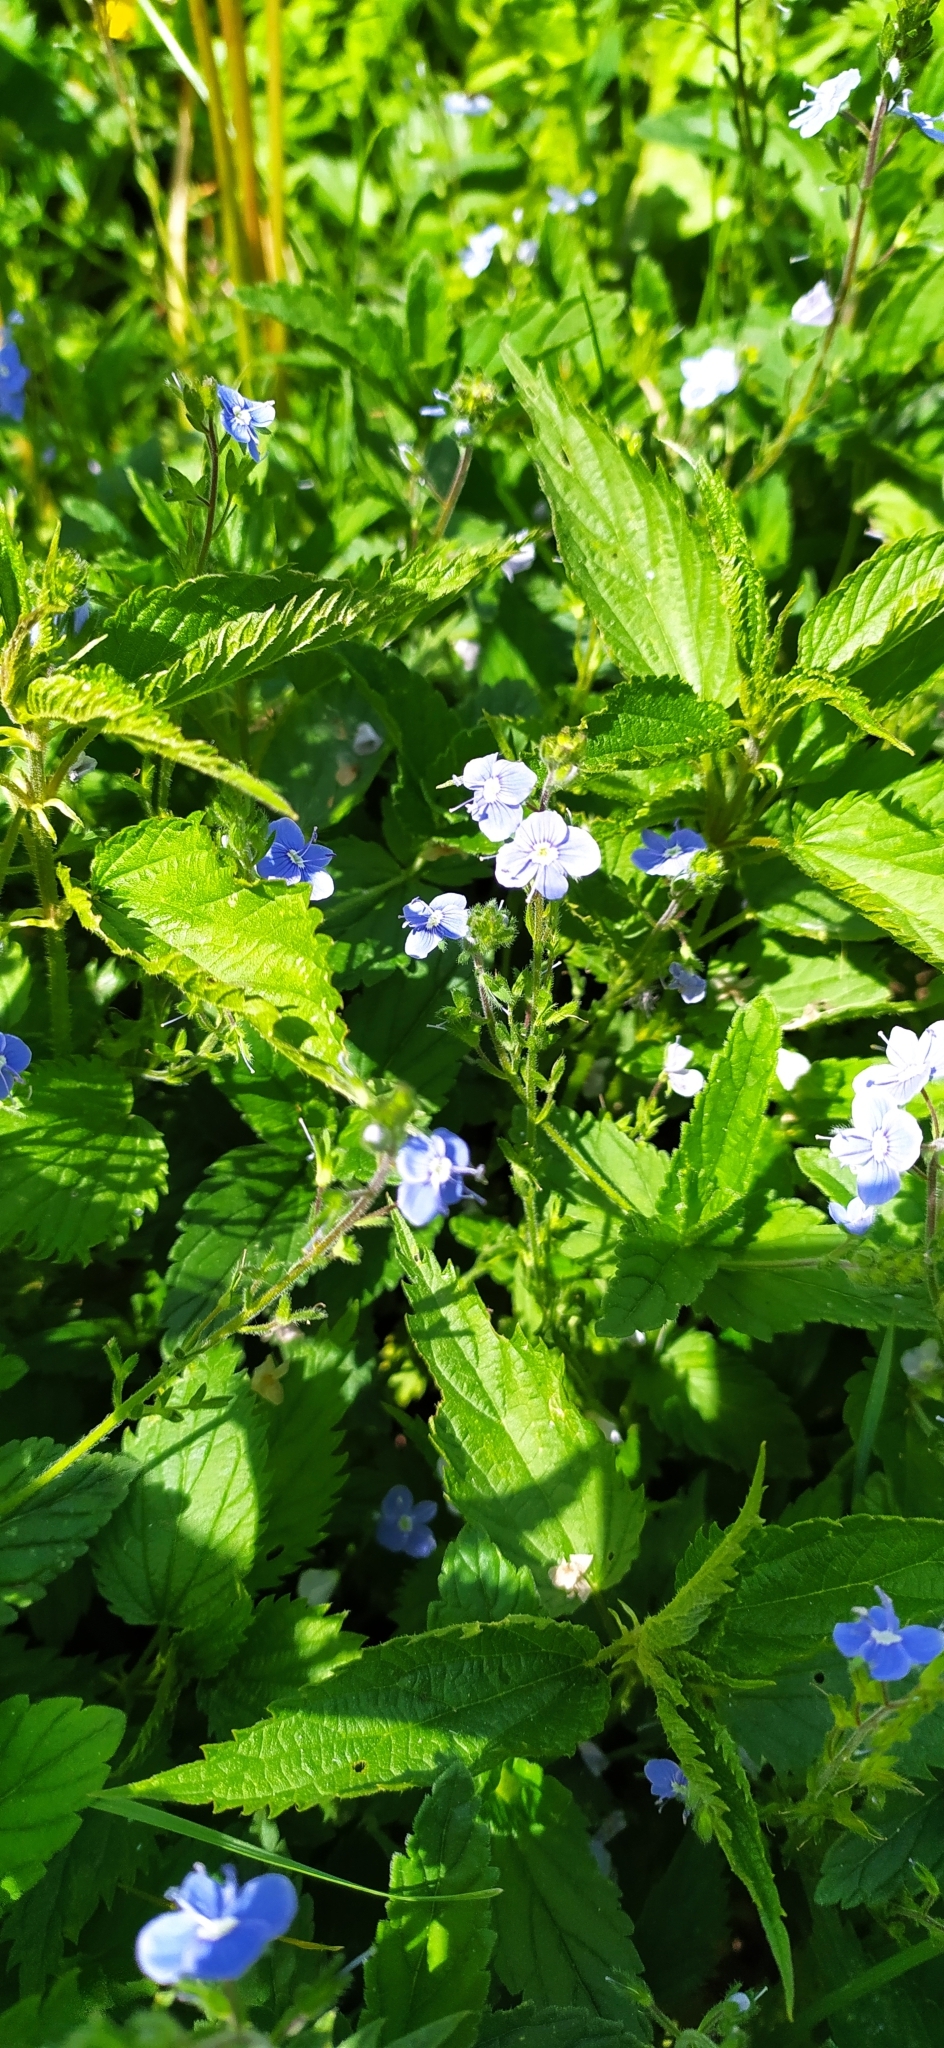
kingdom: Plantae
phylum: Tracheophyta
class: Magnoliopsida
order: Lamiales
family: Plantaginaceae
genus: Veronica
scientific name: Veronica chamaedrys
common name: Germander speedwell
